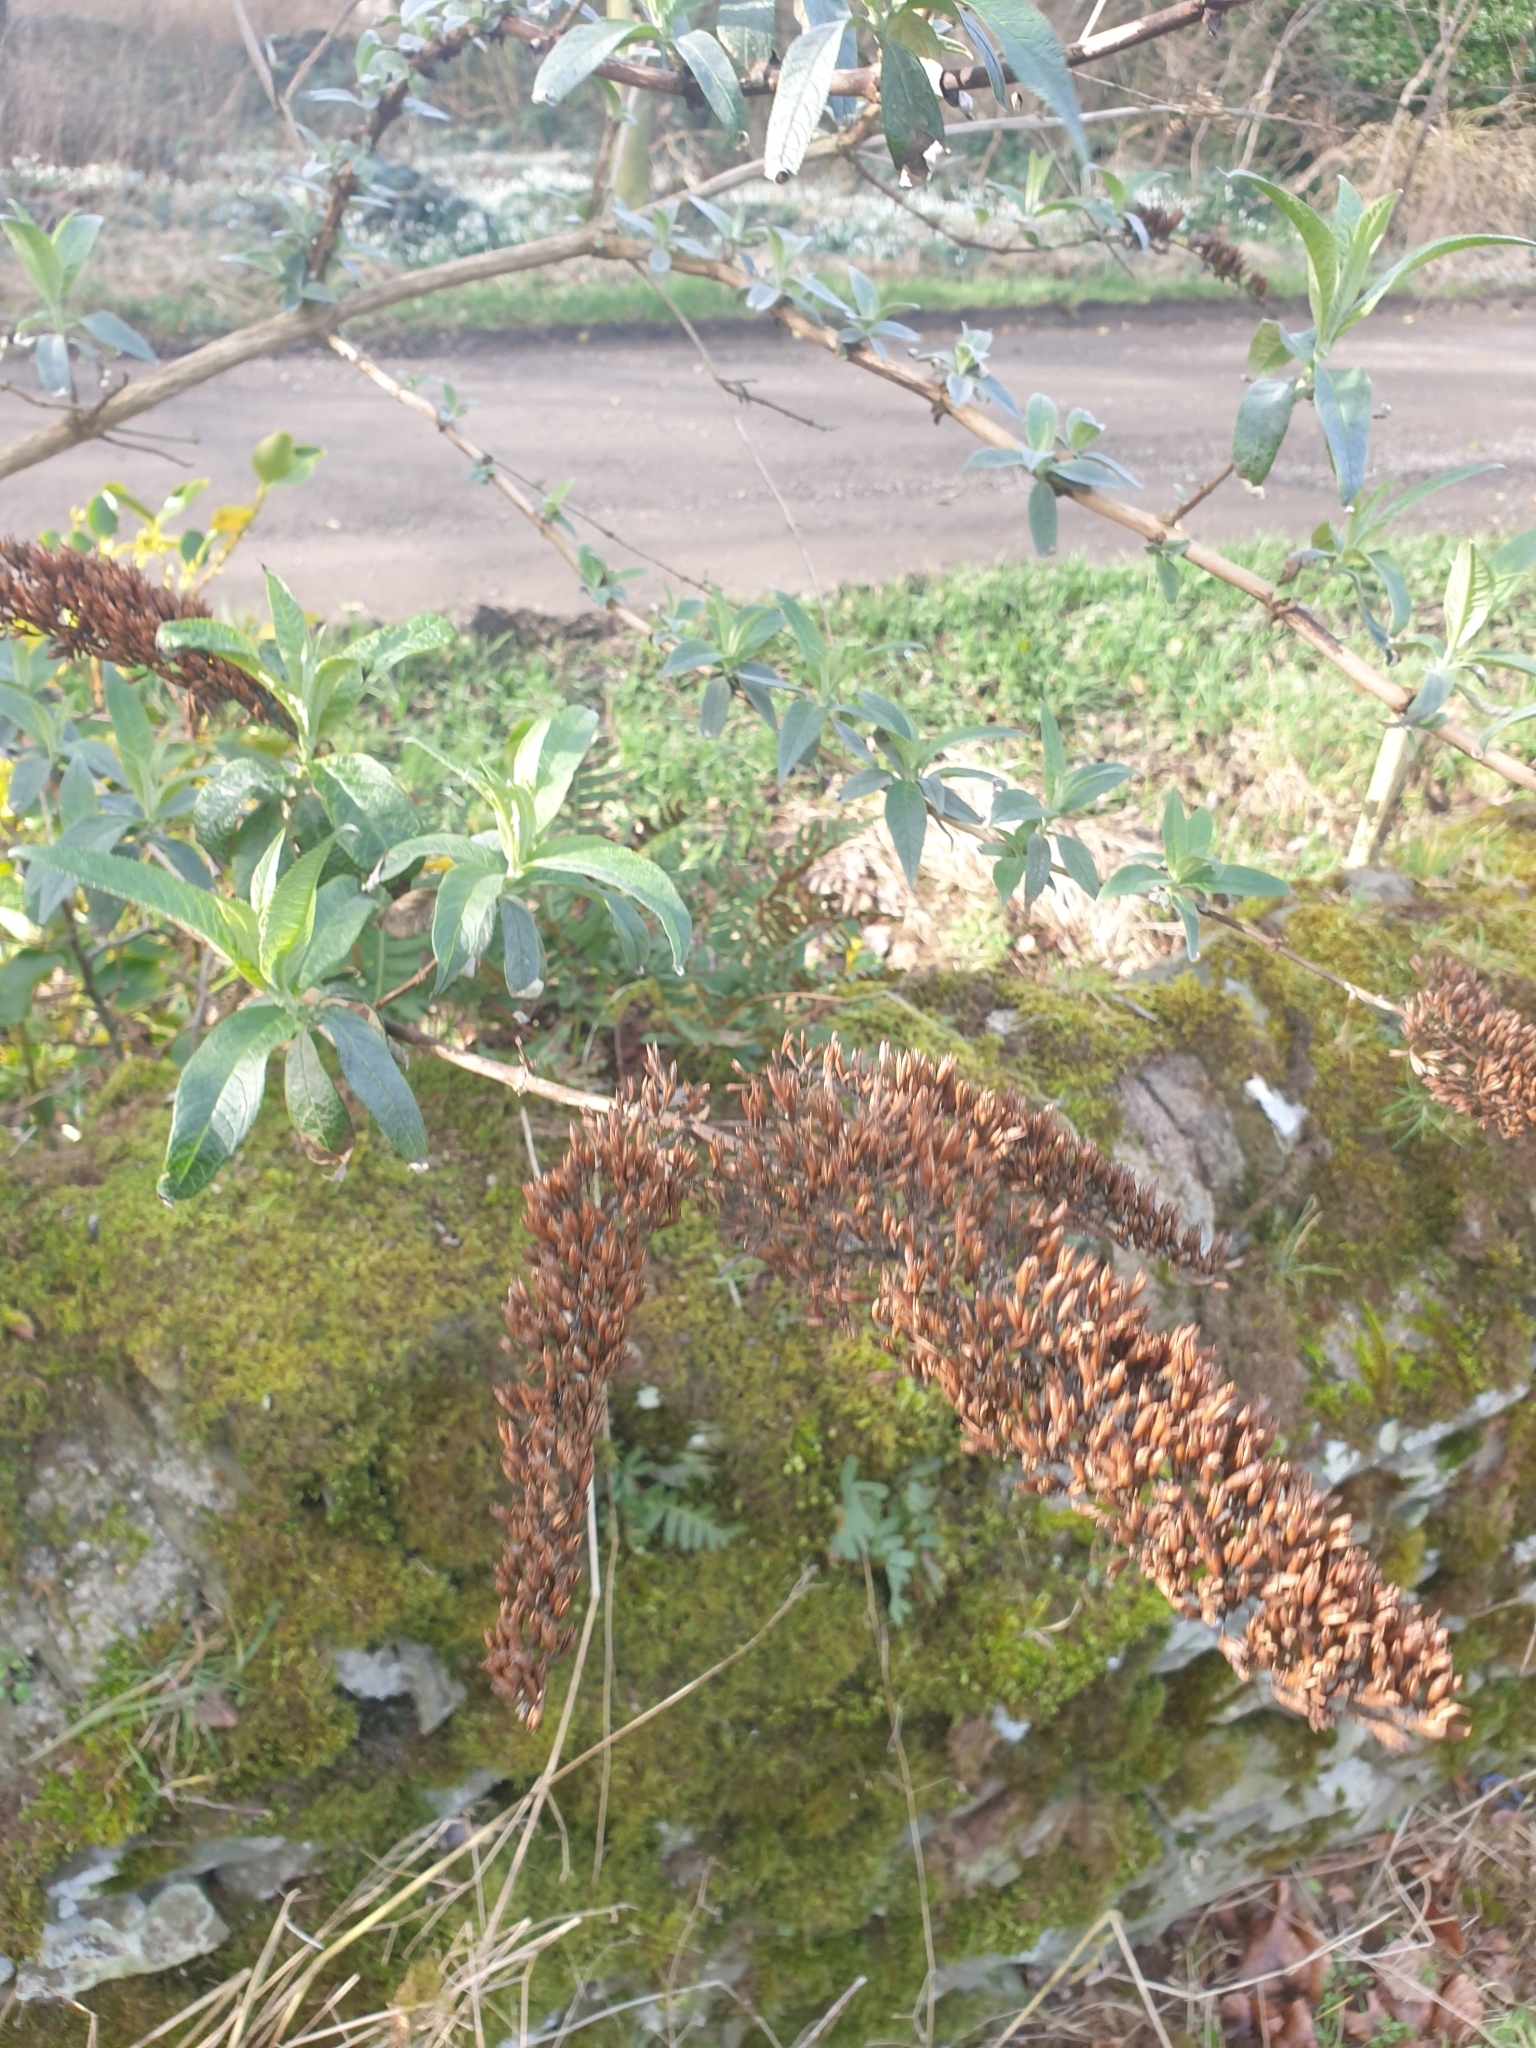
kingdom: Plantae
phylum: Tracheophyta
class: Magnoliopsida
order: Lamiales
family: Scrophulariaceae
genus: Buddleja
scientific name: Buddleja davidii
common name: Butterfly-bush
